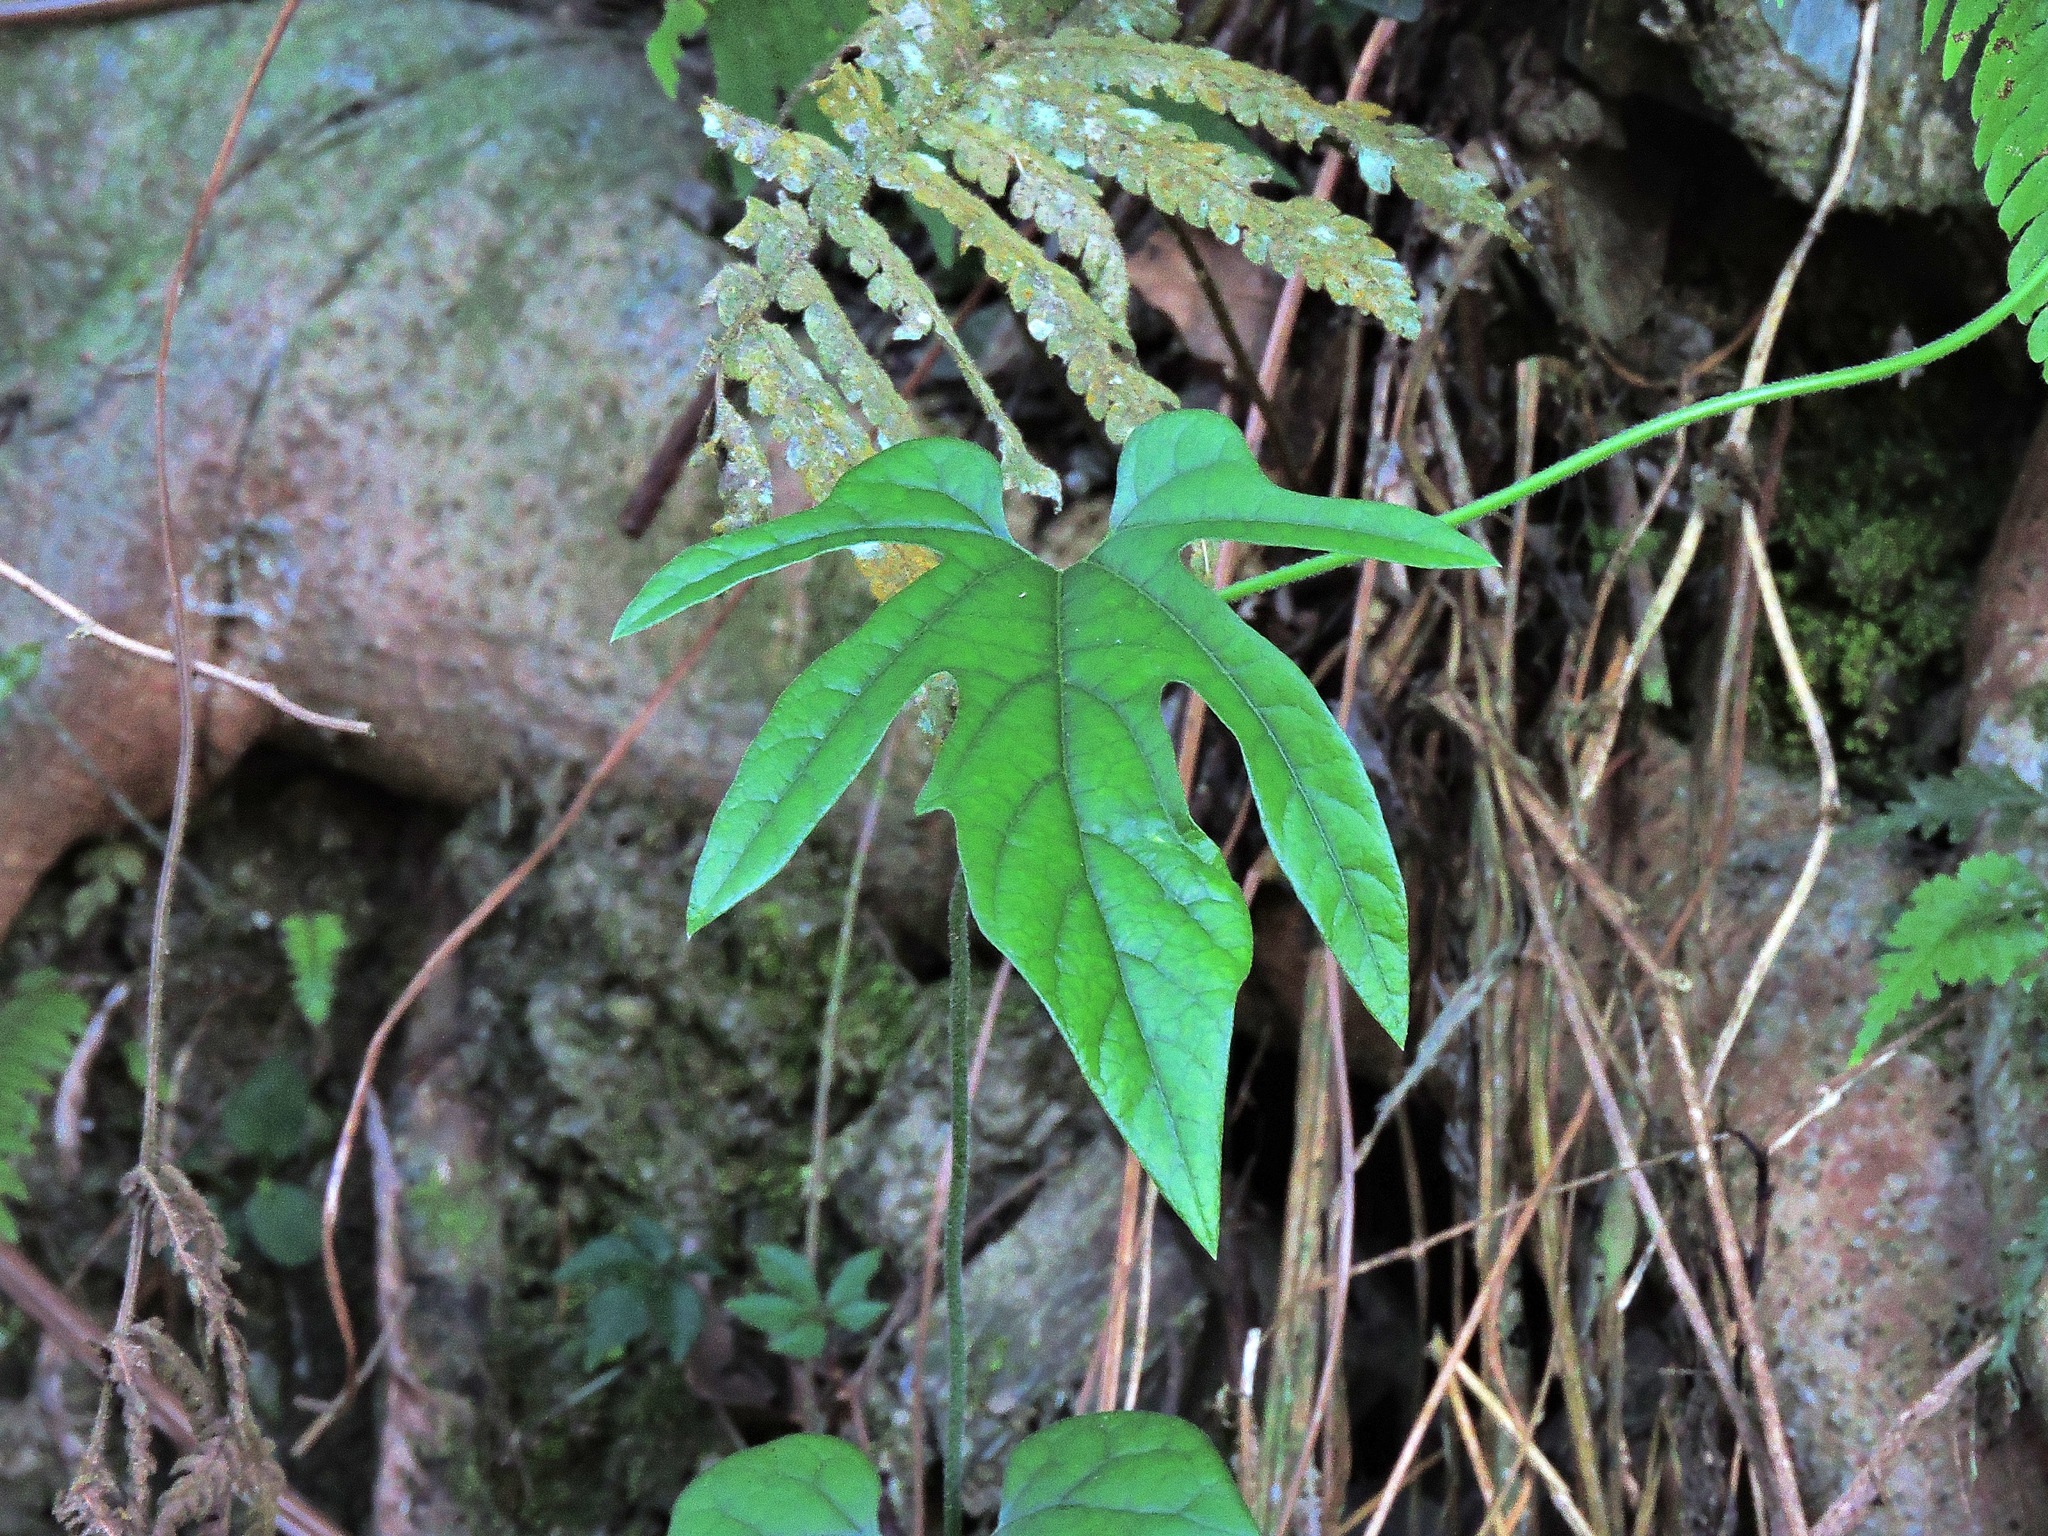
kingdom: Plantae
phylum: Tracheophyta
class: Magnoliopsida
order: Piperales
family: Aristolochiaceae
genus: Isotrema
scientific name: Isotrema cucurbitifolium
